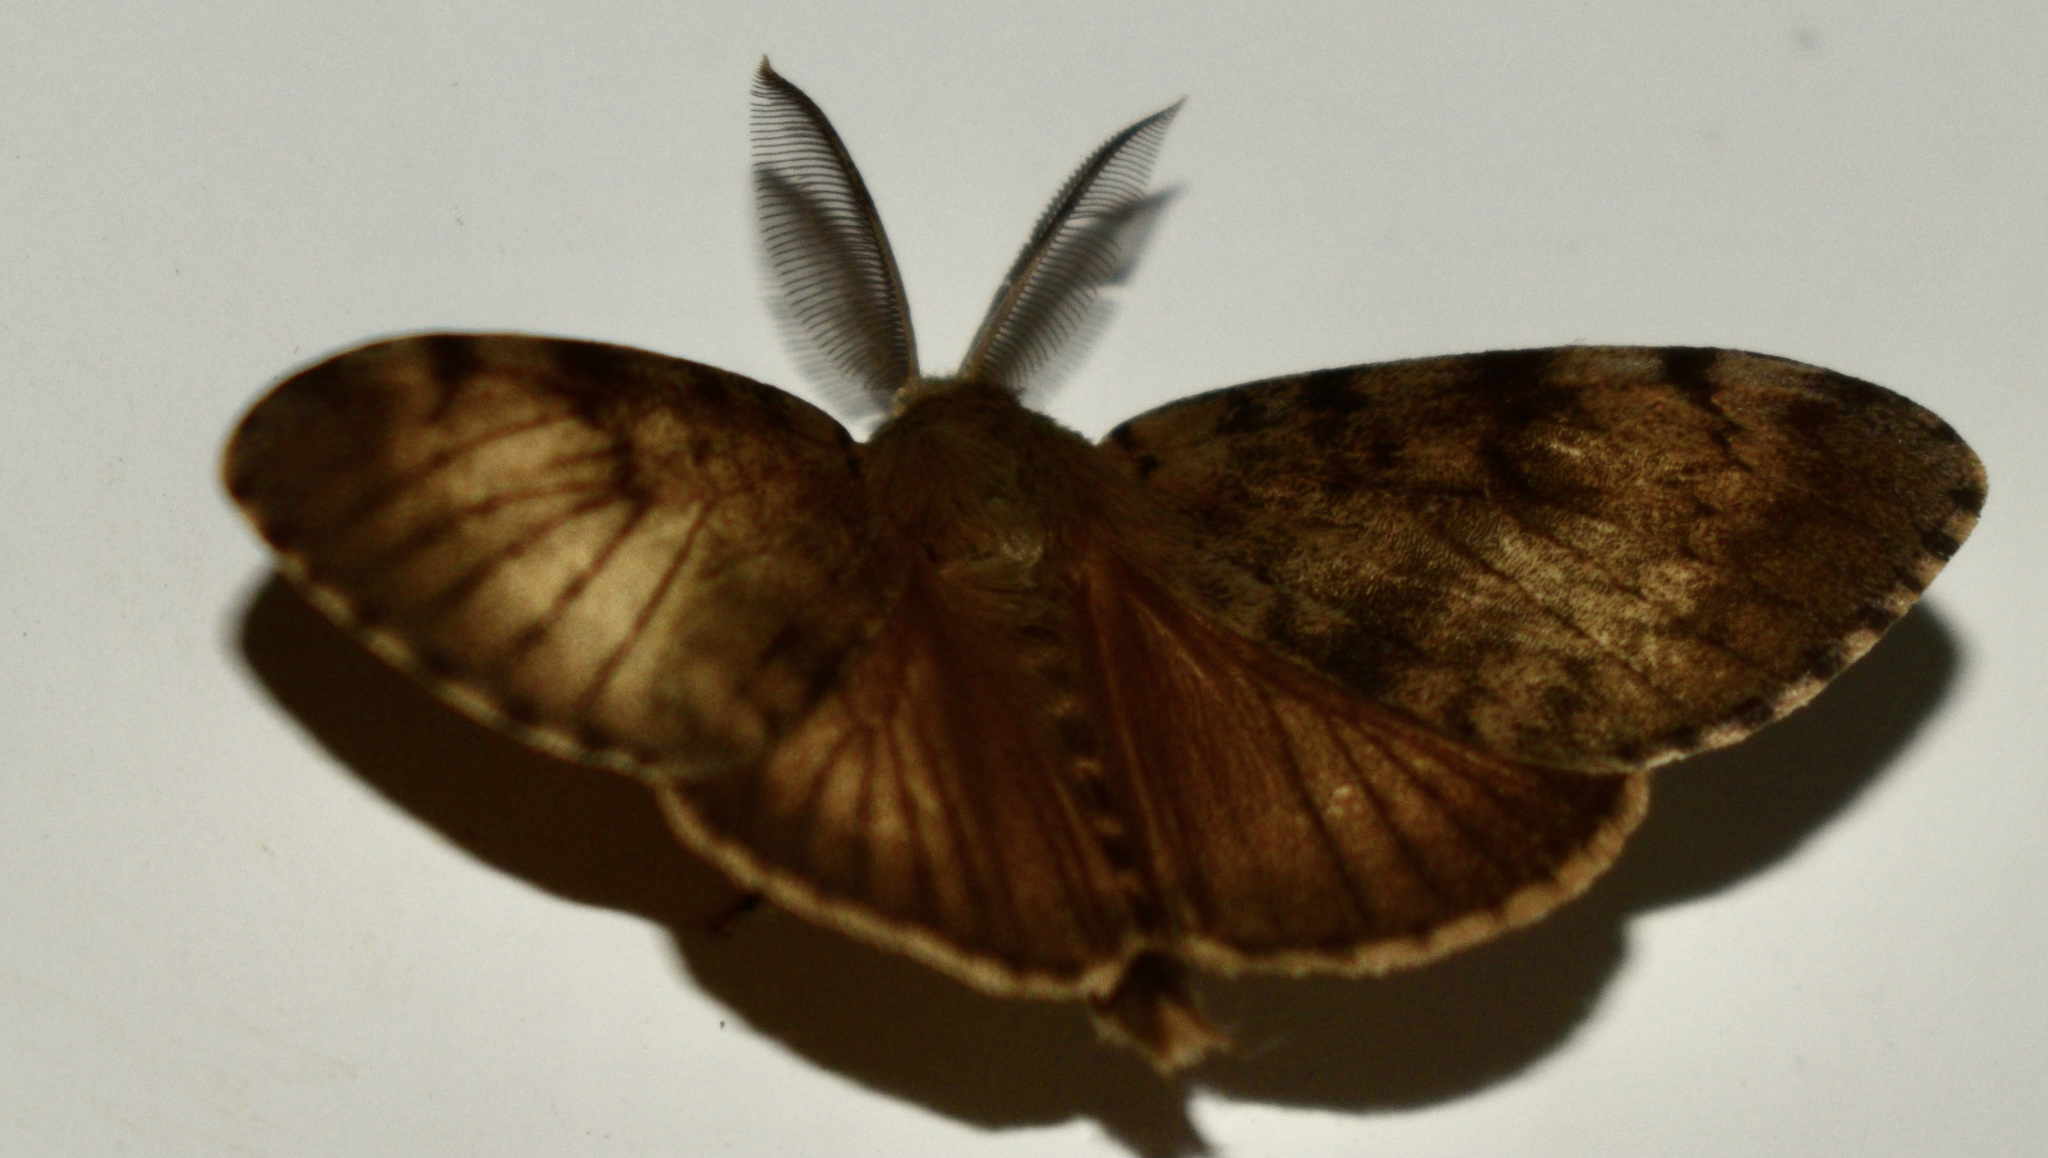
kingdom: Animalia
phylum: Arthropoda
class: Insecta
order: Lepidoptera
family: Erebidae
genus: Lymantria
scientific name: Lymantria dispar
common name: Gypsy moth
